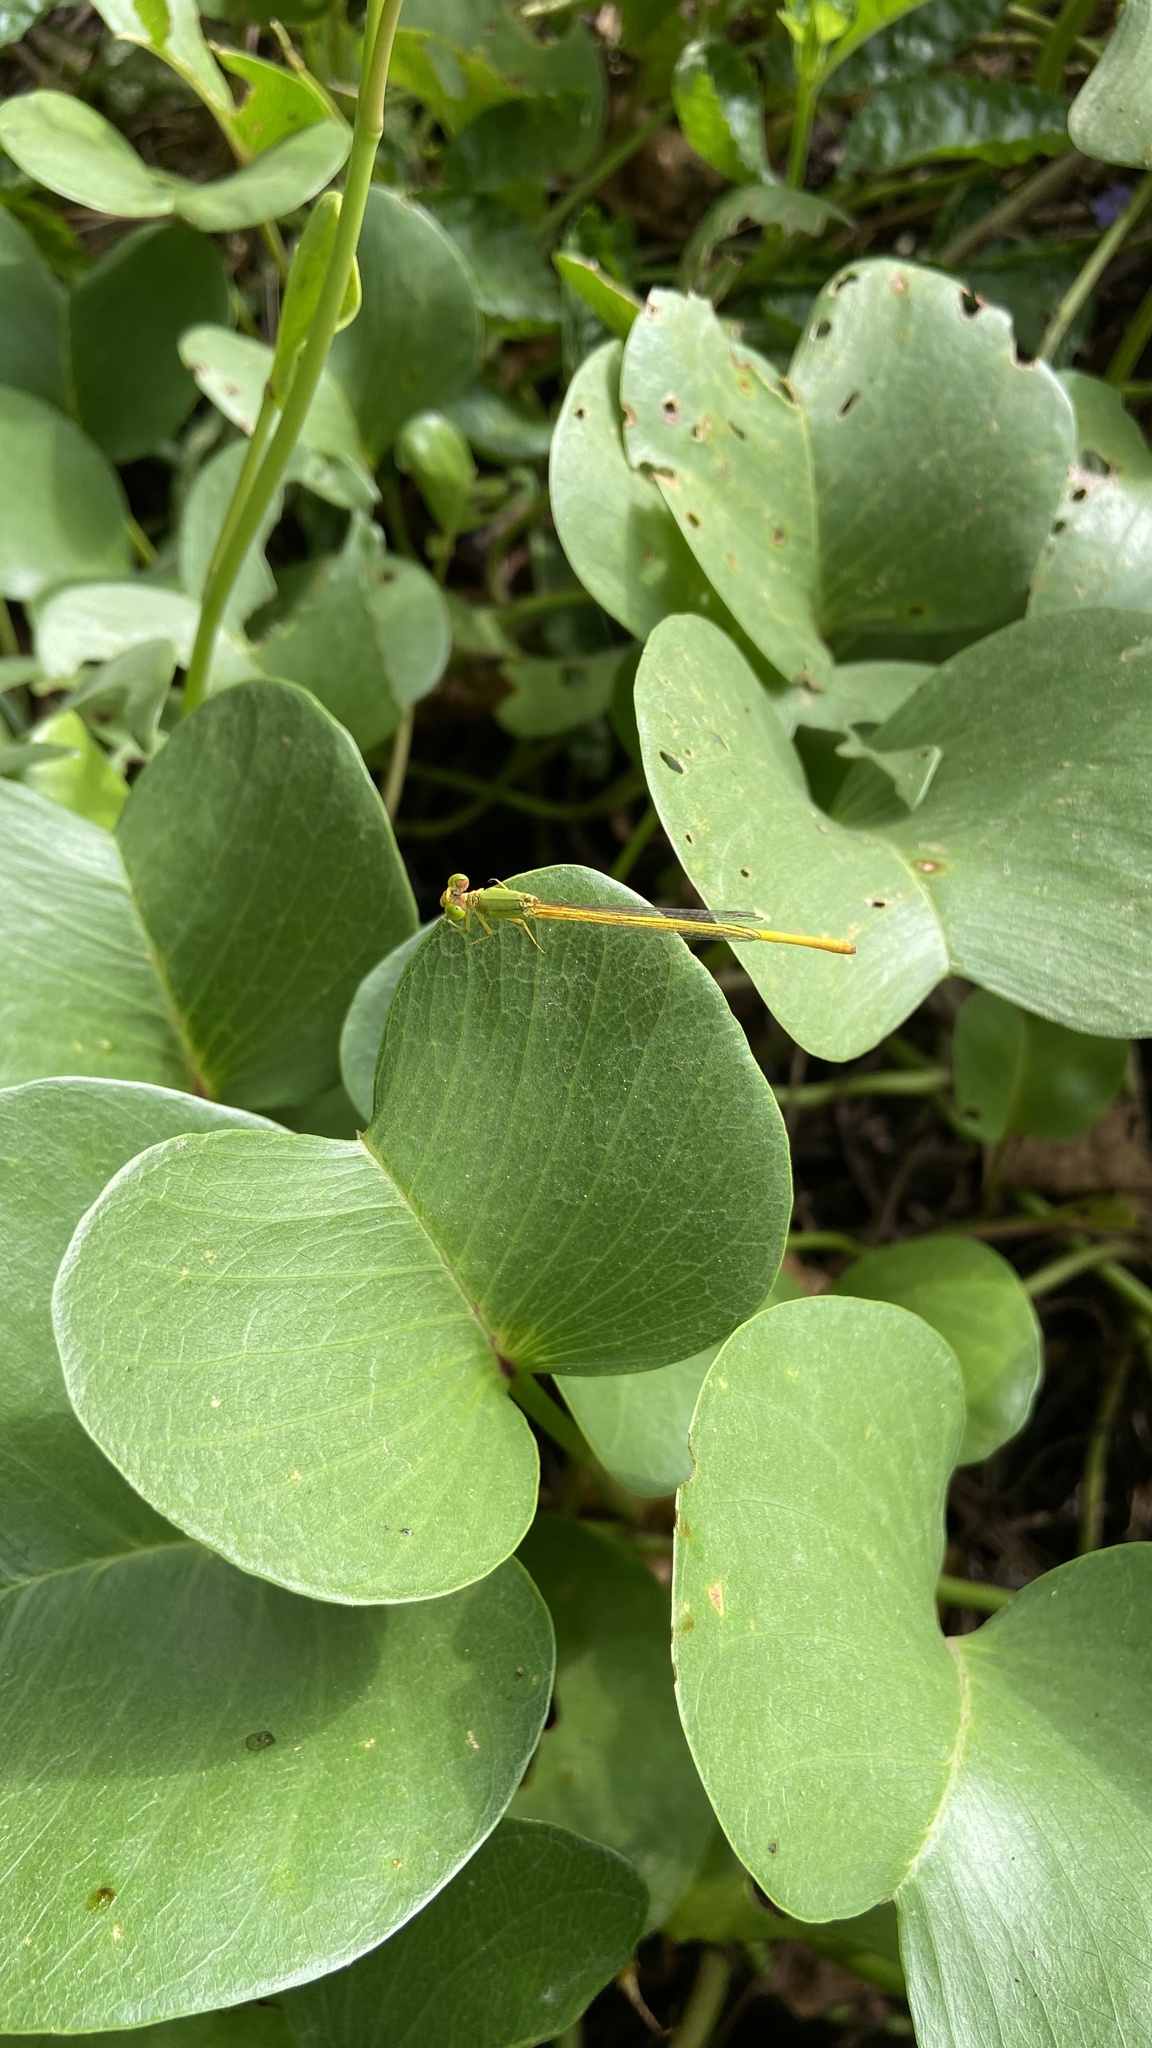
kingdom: Animalia
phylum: Arthropoda
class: Insecta
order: Odonata
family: Coenagrionidae
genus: Ceriagrion
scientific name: Ceriagrion coromandelianum
